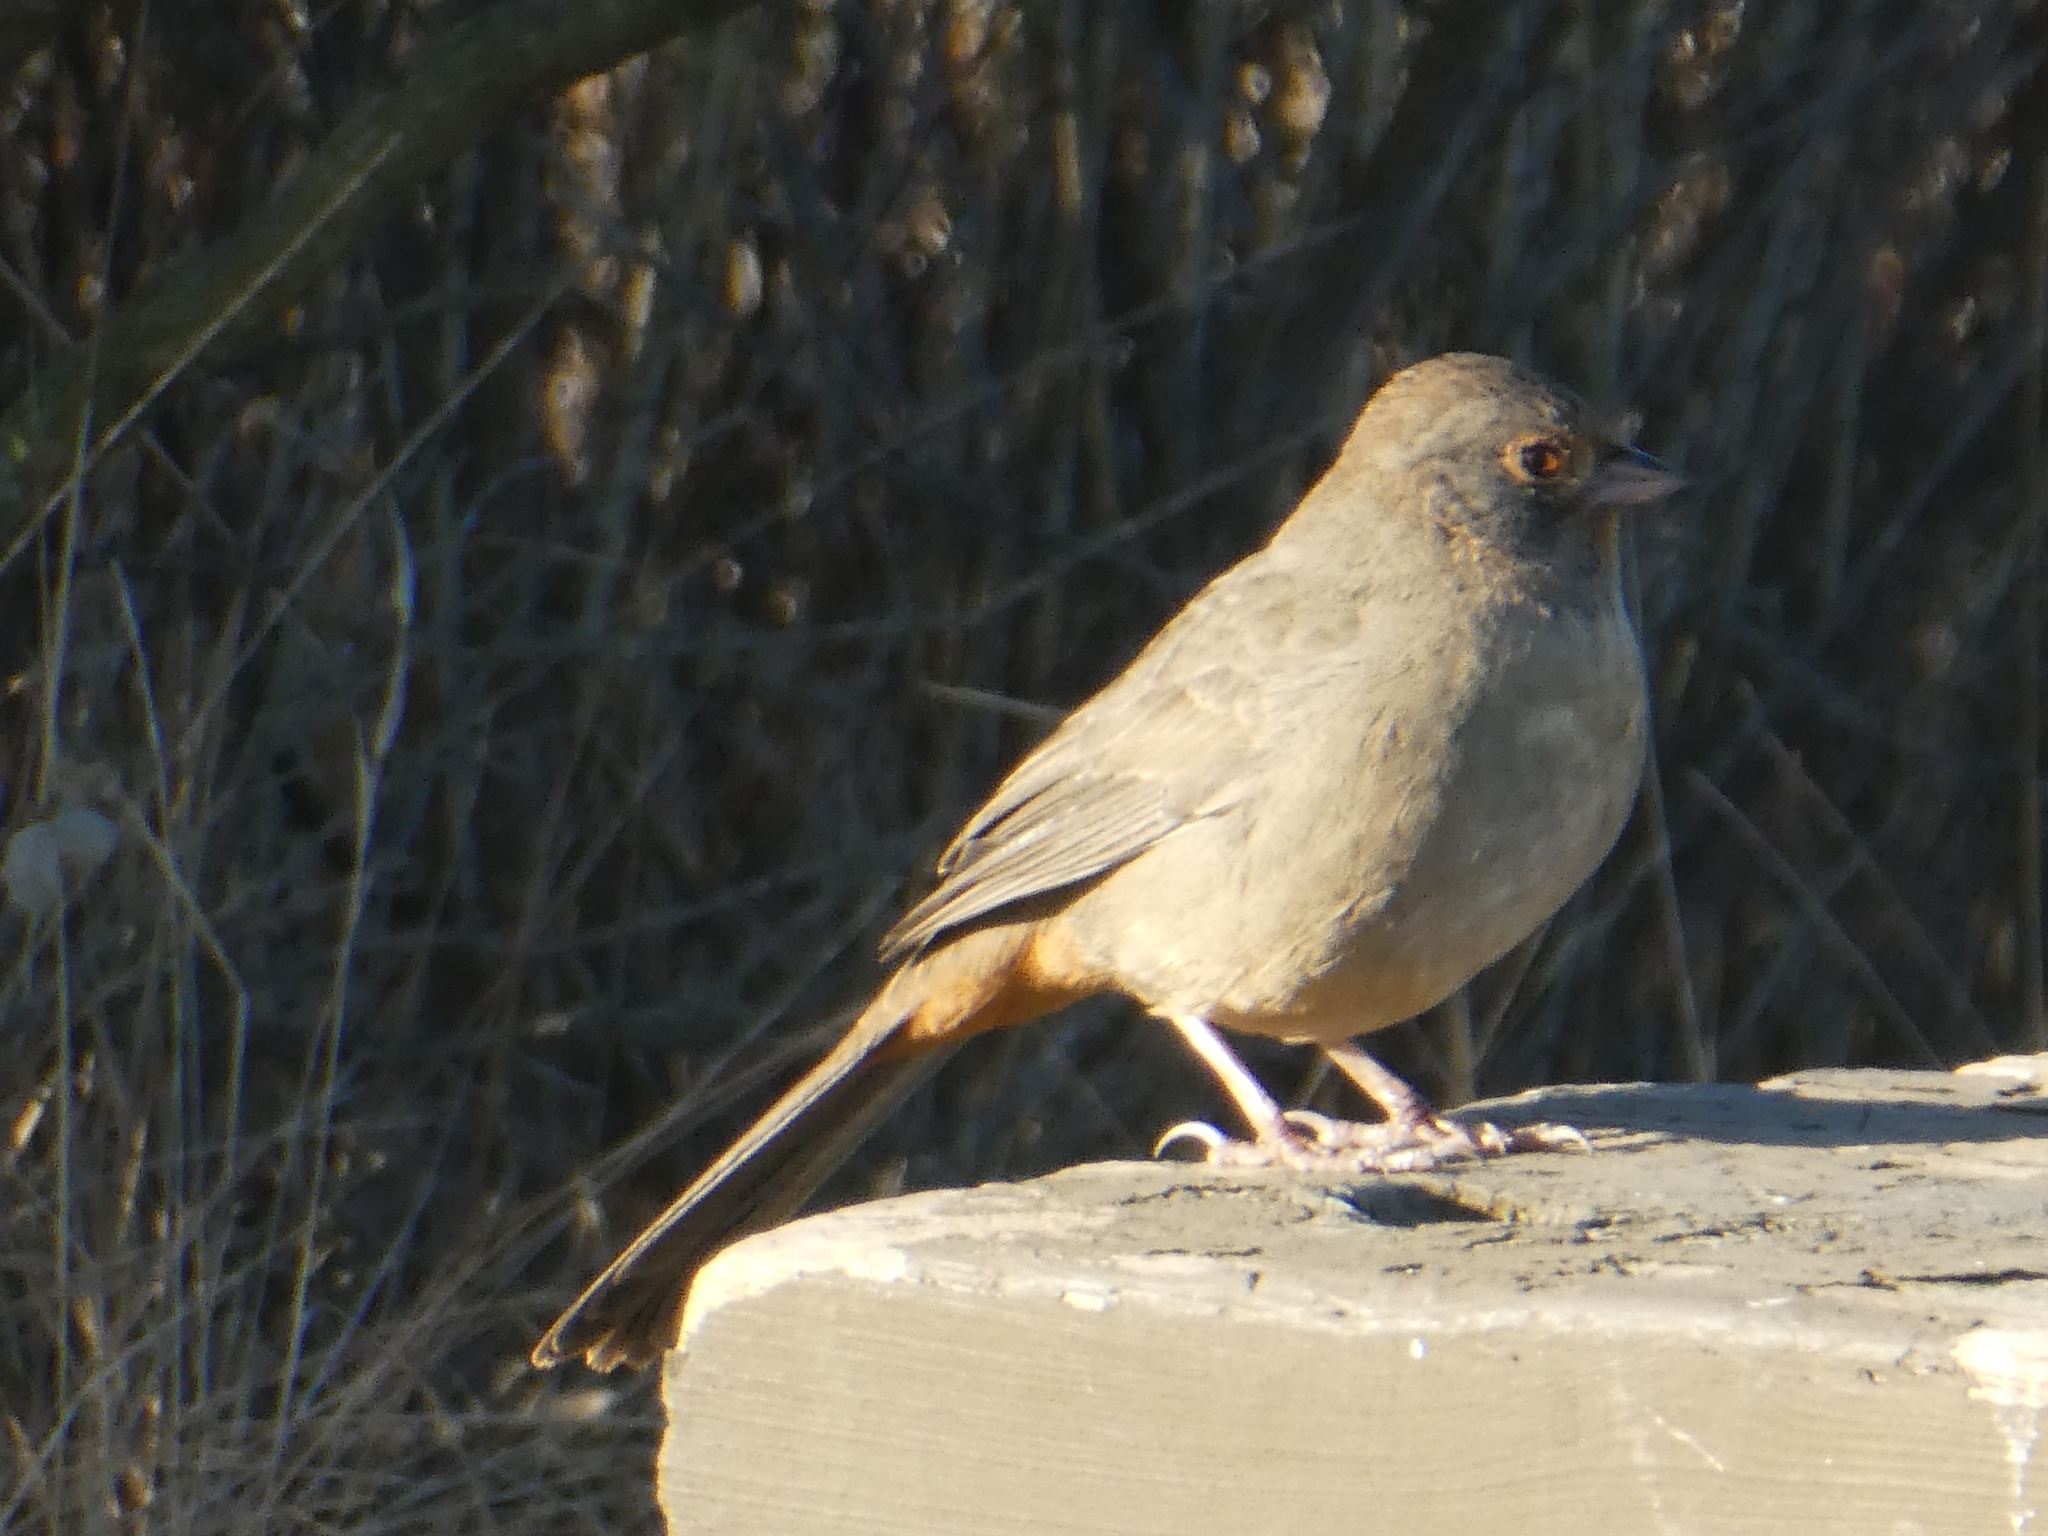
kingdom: Animalia
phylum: Chordata
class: Aves
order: Passeriformes
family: Passerellidae
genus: Melozone
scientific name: Melozone crissalis
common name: California towhee
